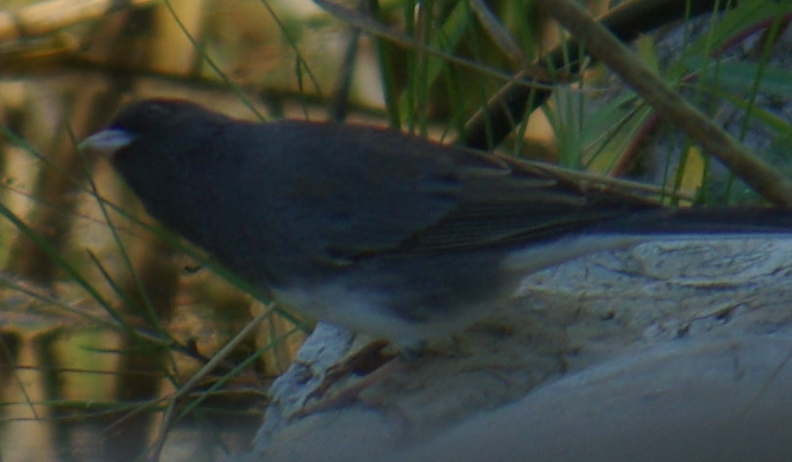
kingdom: Animalia
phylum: Chordata
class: Aves
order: Passeriformes
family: Passerellidae
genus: Junco
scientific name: Junco hyemalis
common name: Dark-eyed junco
